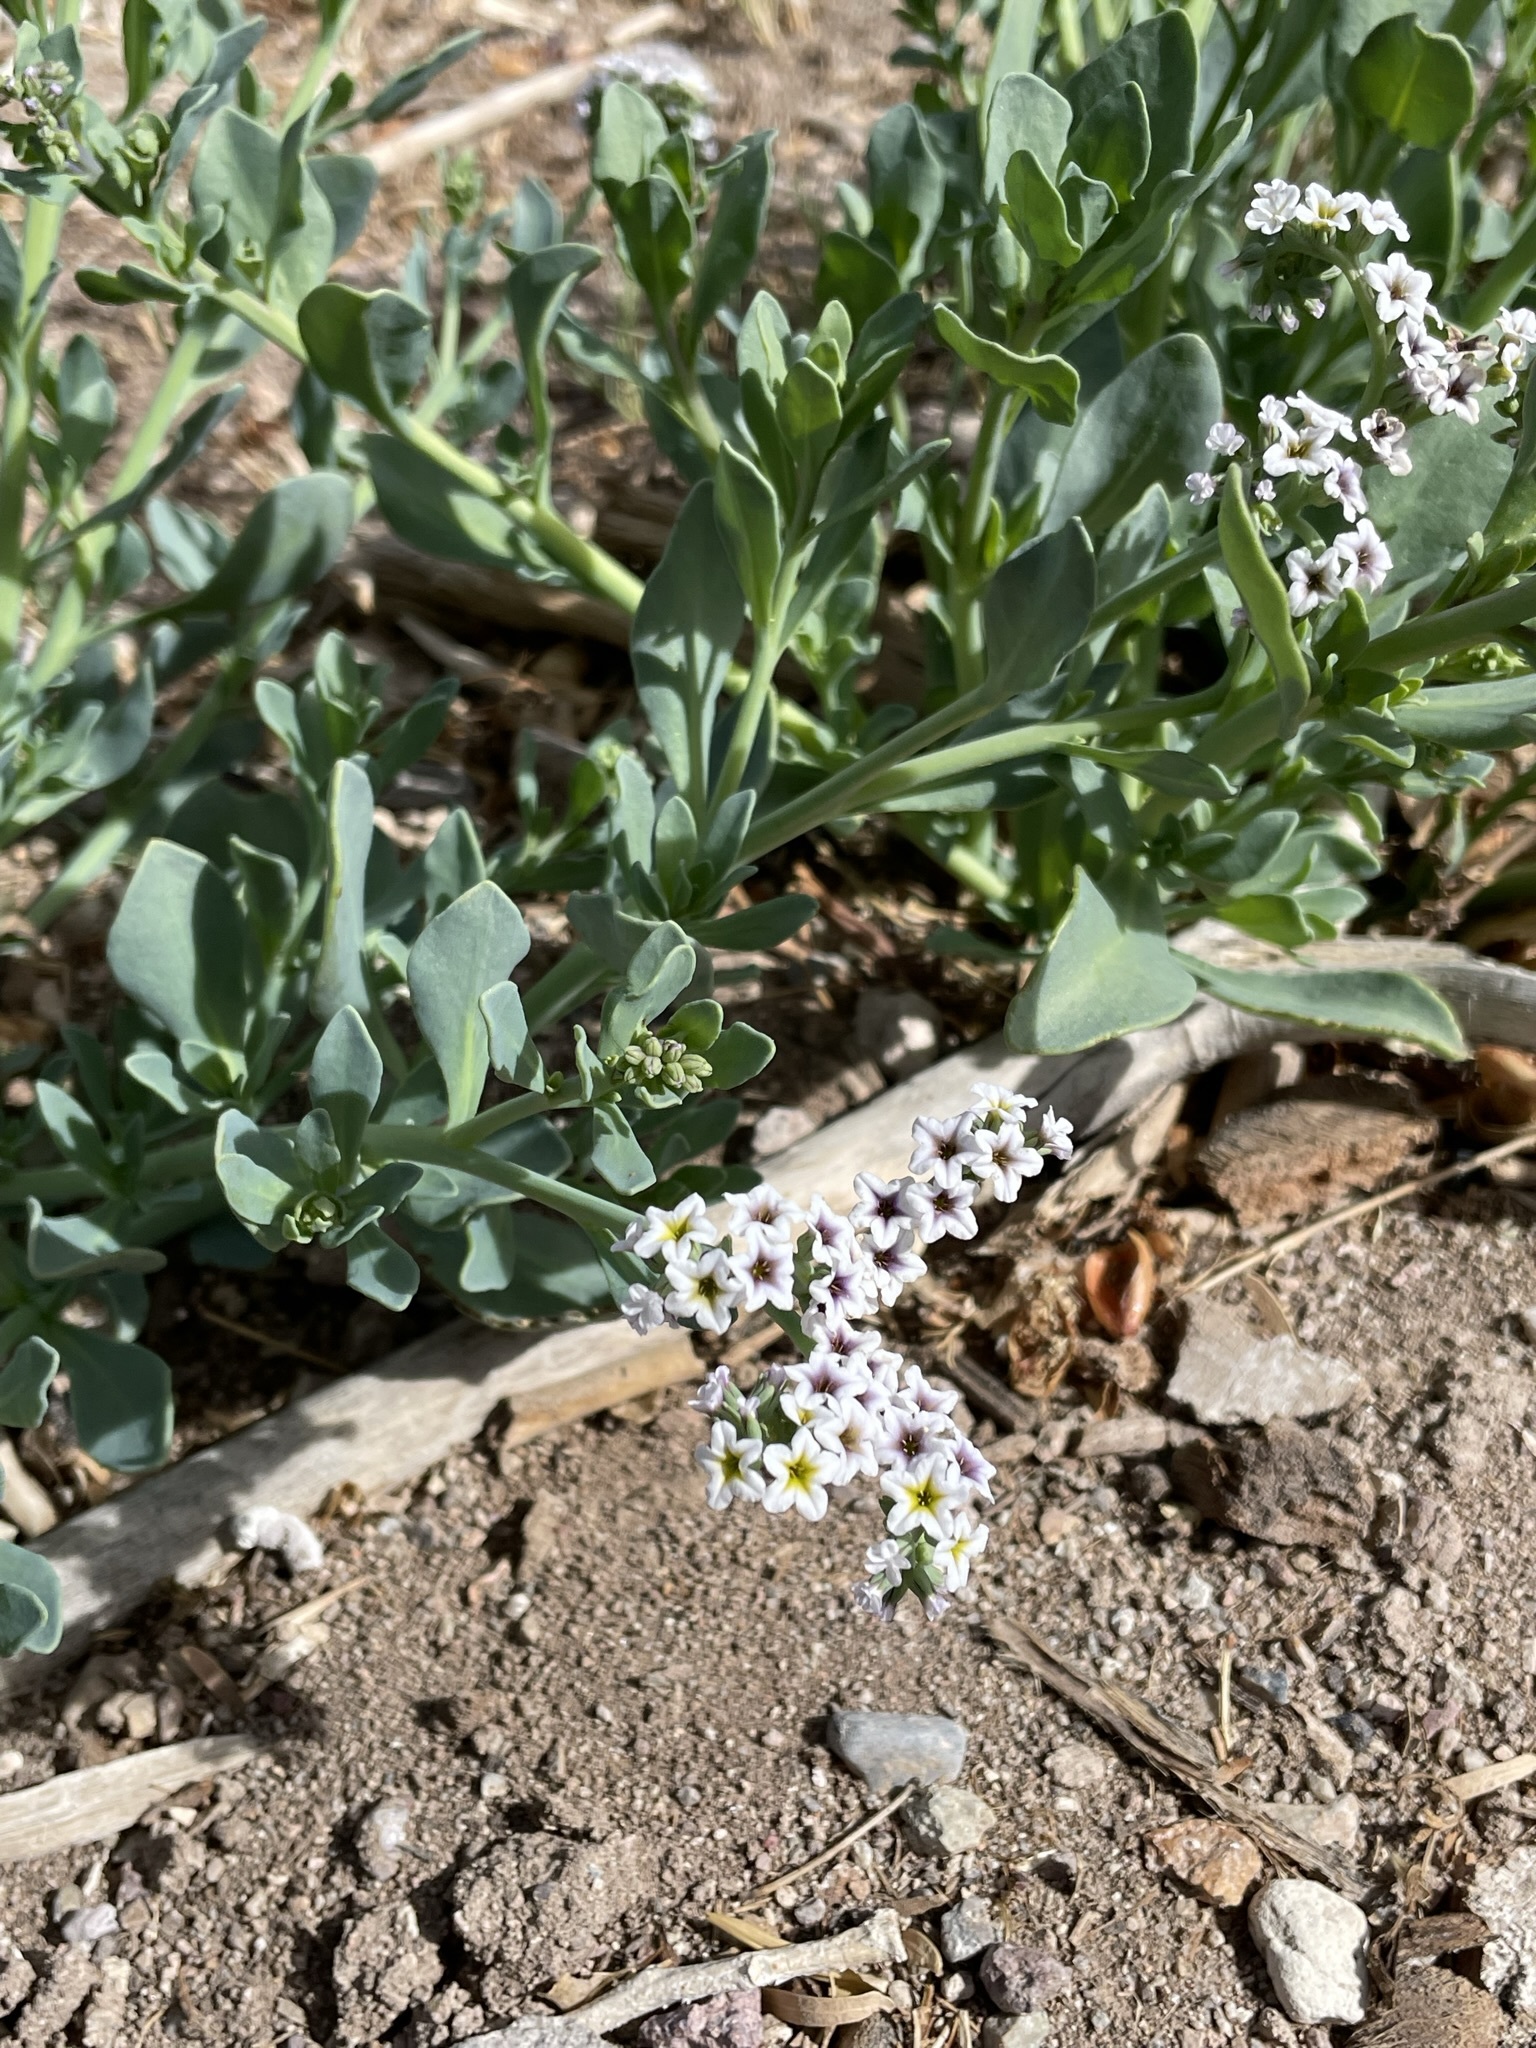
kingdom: Plantae
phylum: Tracheophyta
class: Magnoliopsida
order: Boraginales
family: Heliotropiaceae
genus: Heliotropium
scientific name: Heliotropium curassavicum
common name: Seaside heliotrope
